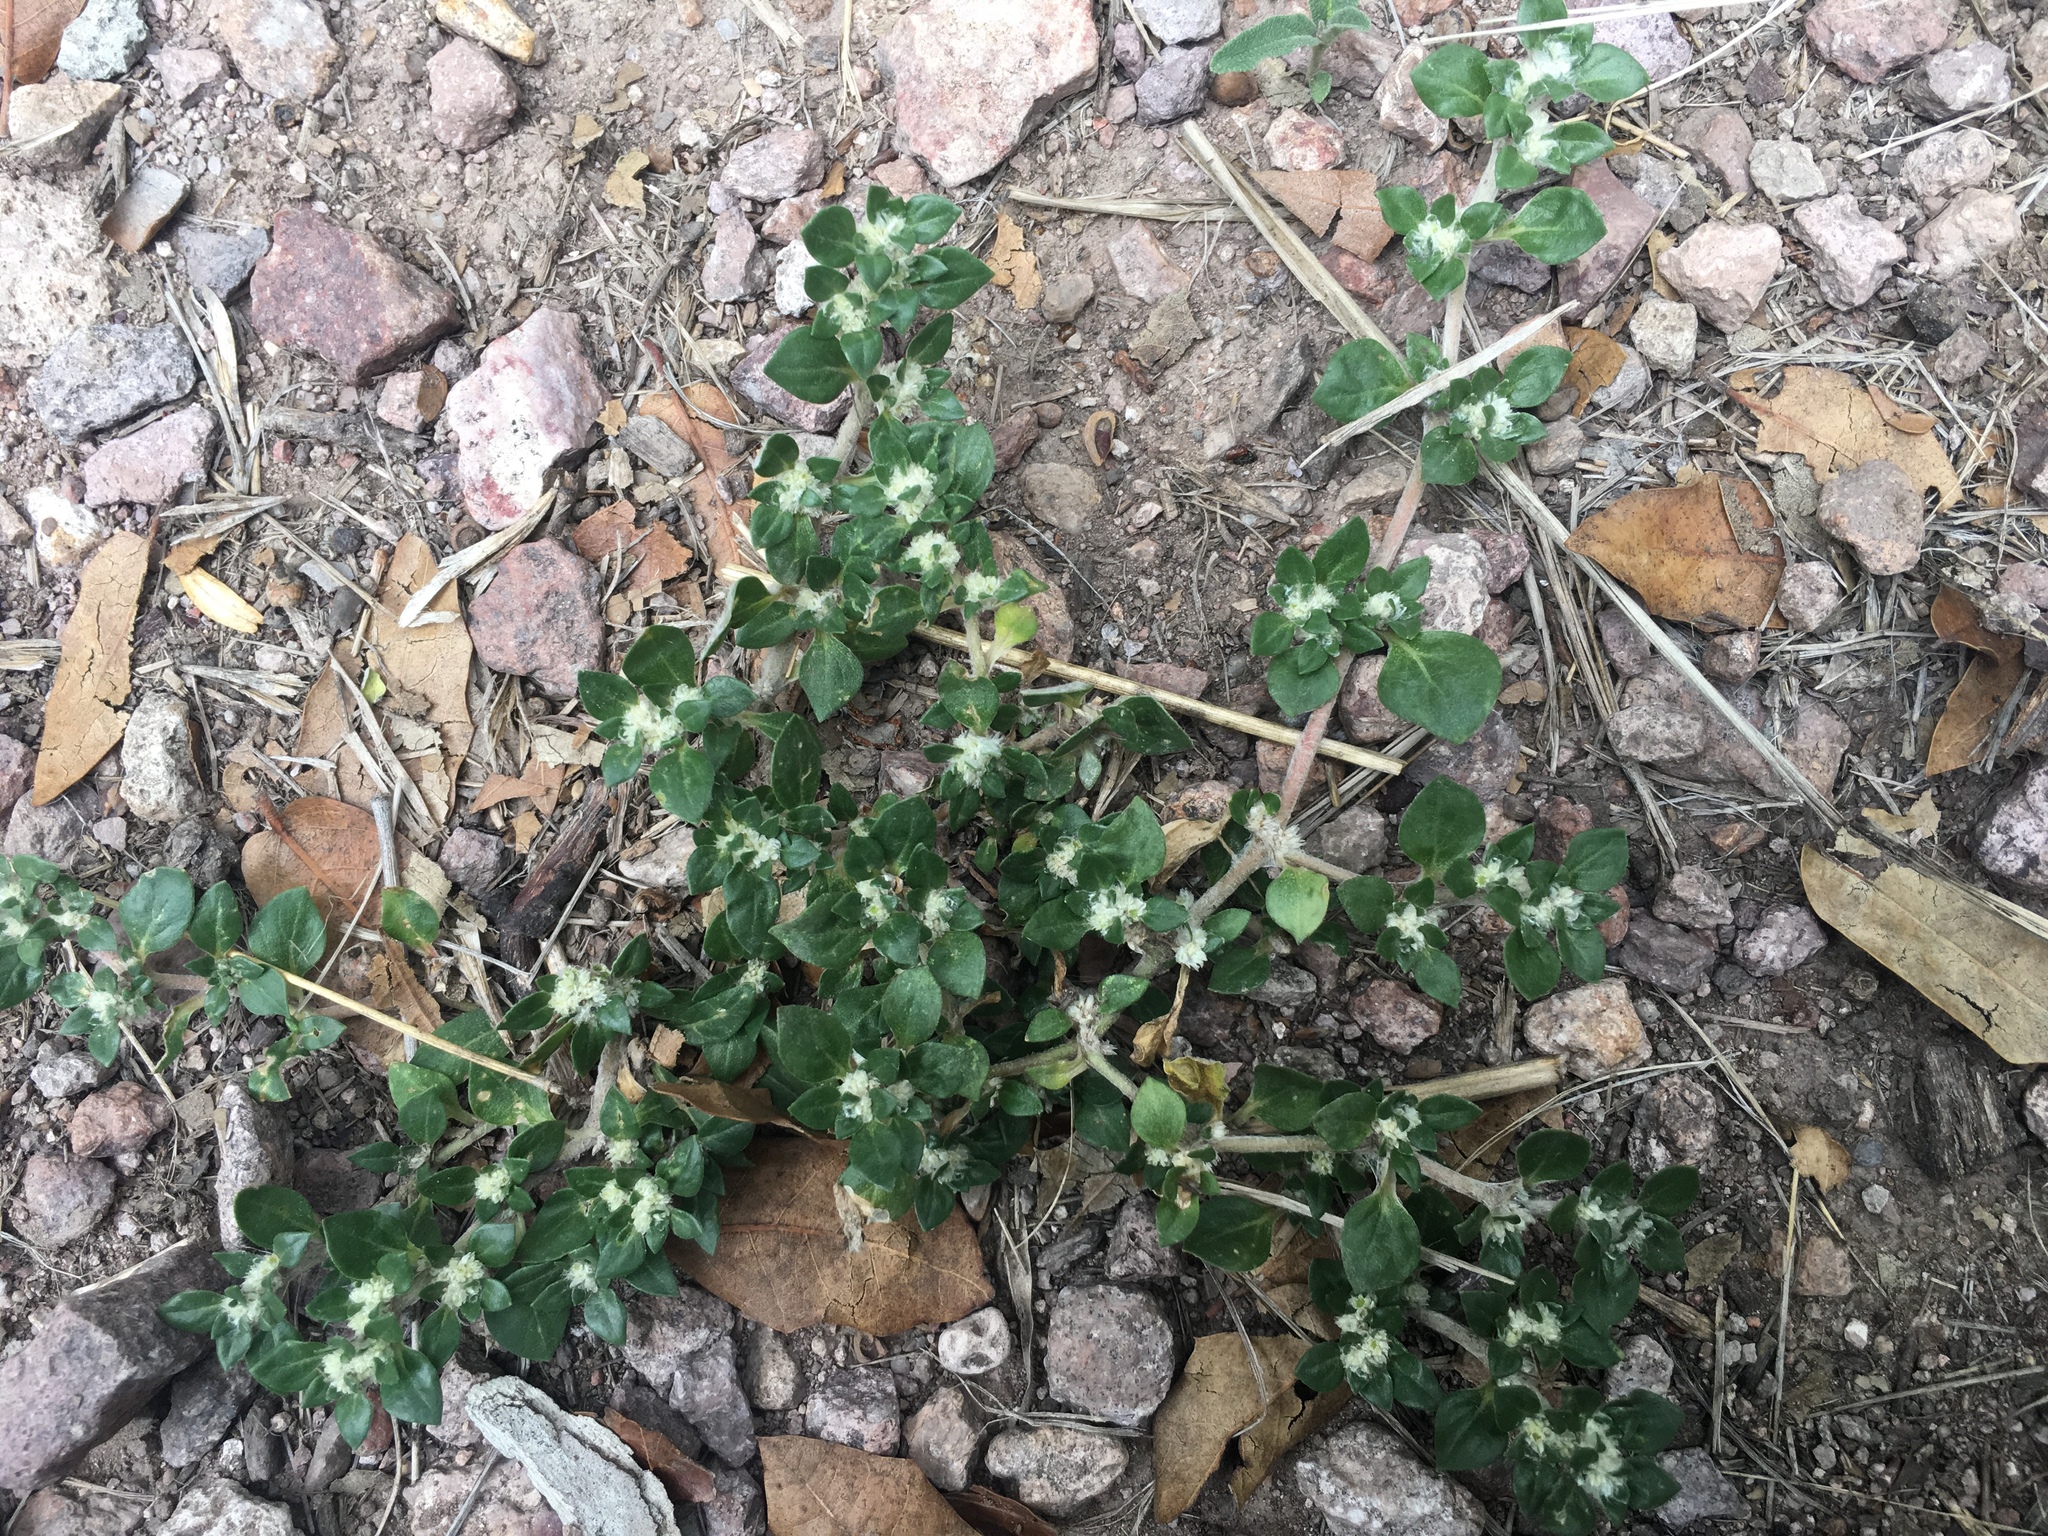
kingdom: Plantae
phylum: Tracheophyta
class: Magnoliopsida
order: Caryophyllales
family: Amaranthaceae
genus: Guilleminea
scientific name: Guilleminea densa
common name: Small matweed
